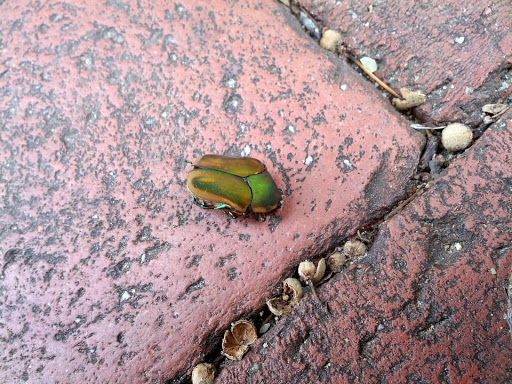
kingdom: Animalia
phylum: Arthropoda
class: Insecta
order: Coleoptera
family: Scarabaeidae
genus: Cotinis
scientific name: Cotinis nitida
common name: Common green june beetle
